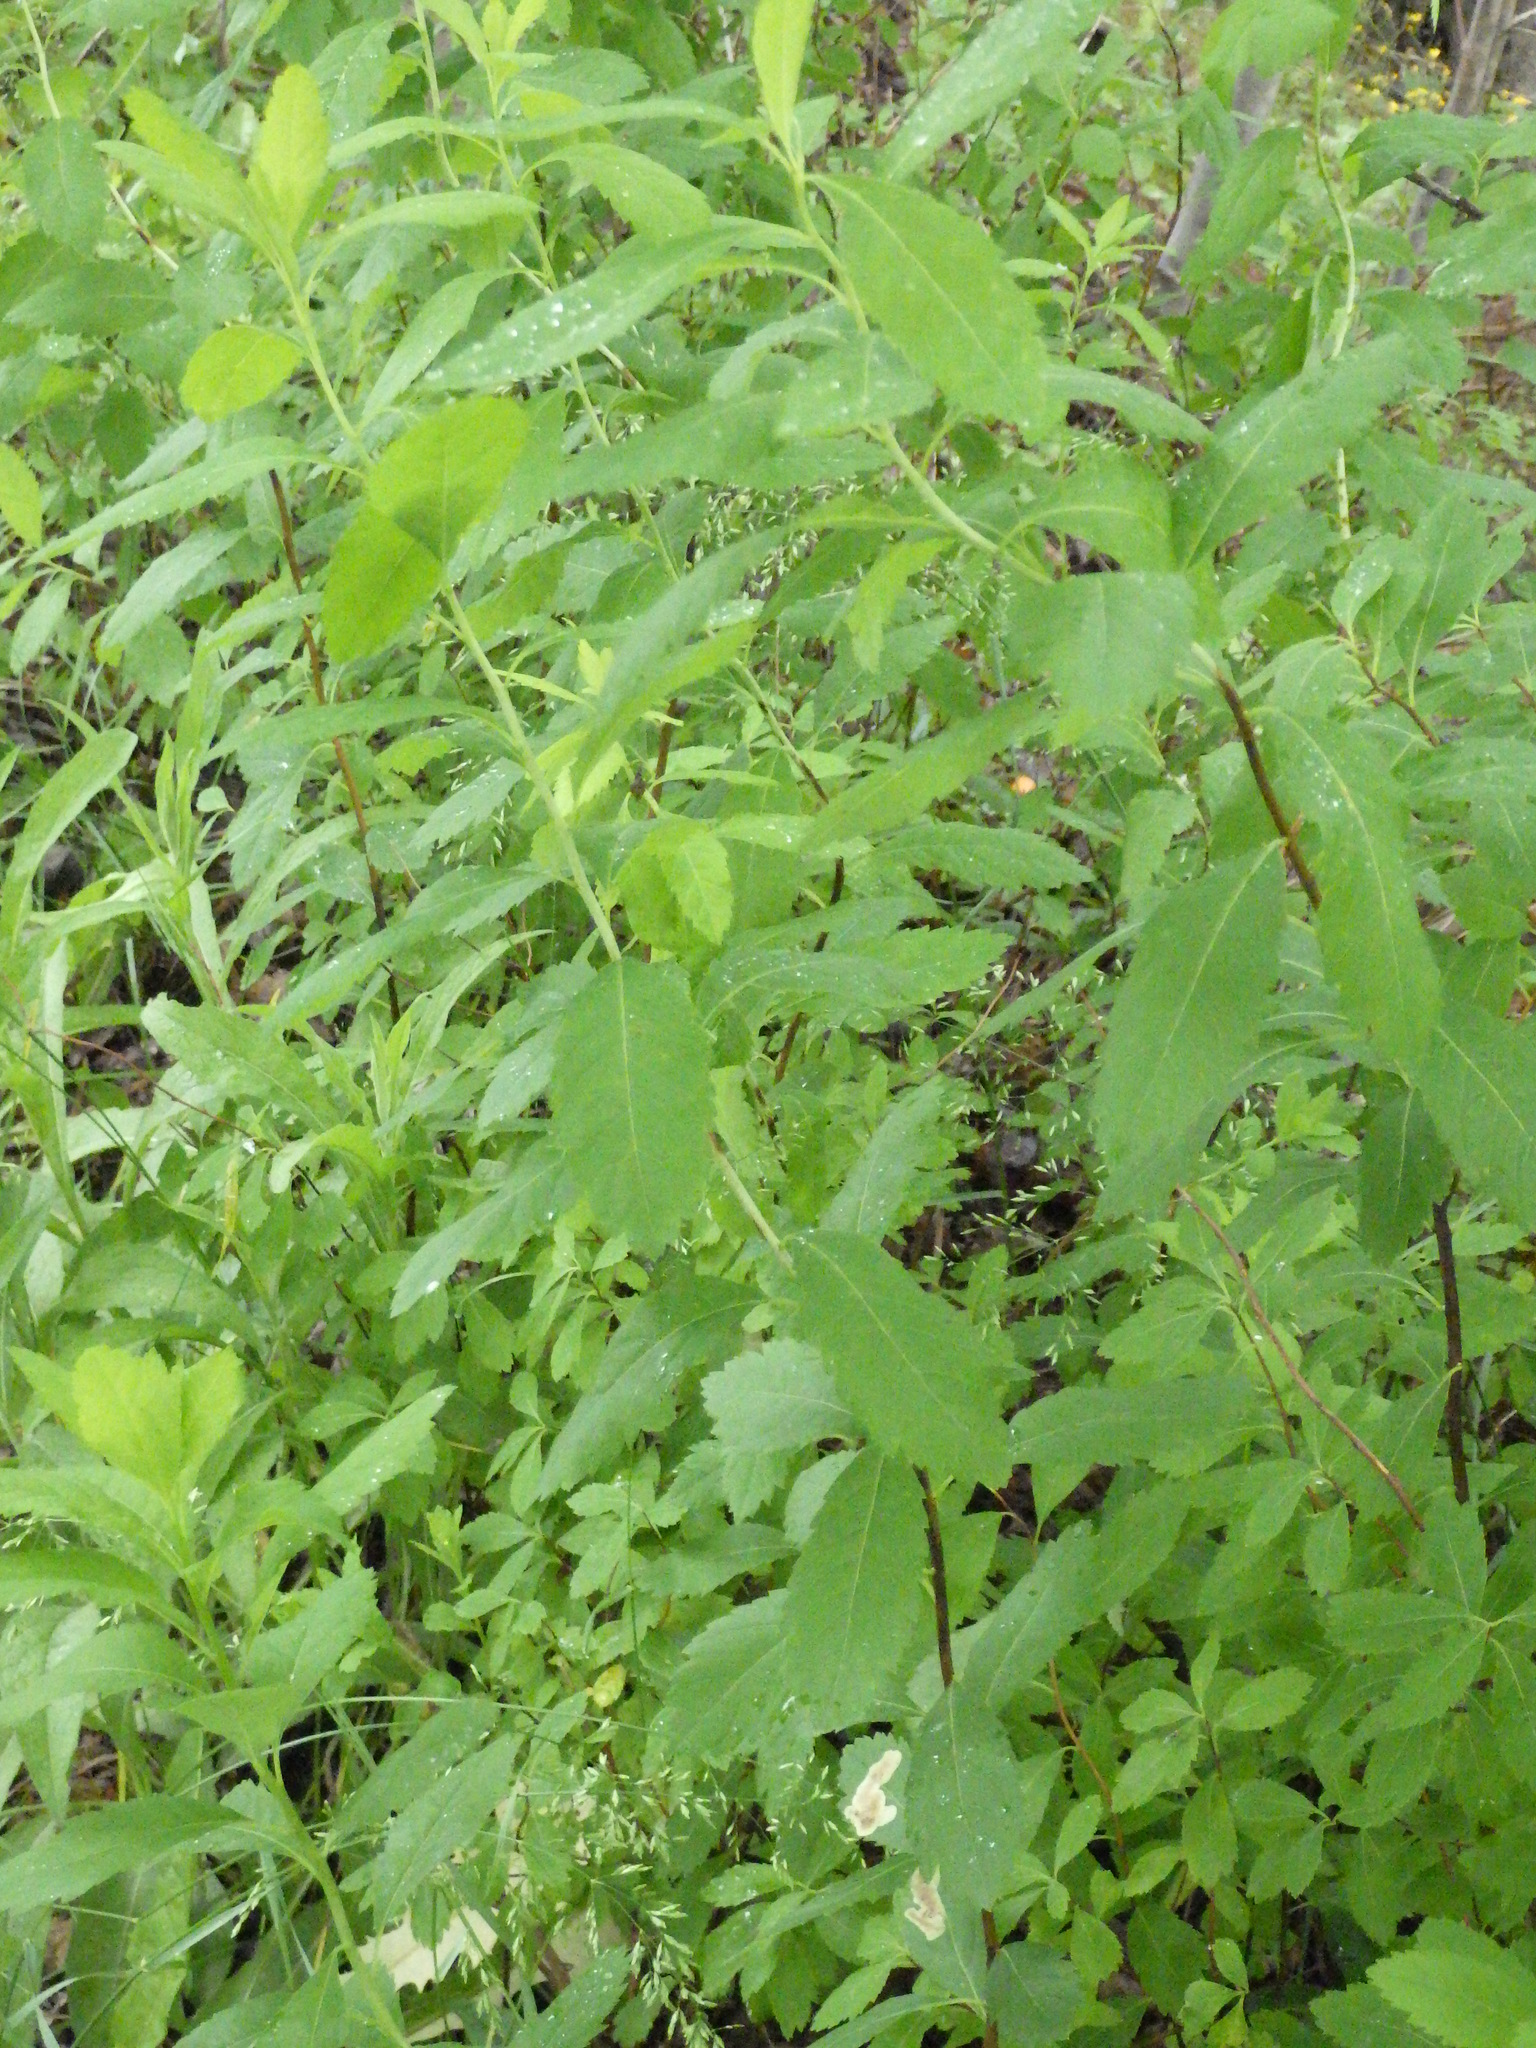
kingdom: Plantae
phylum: Tracheophyta
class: Magnoliopsida
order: Rosales
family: Rosaceae
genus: Spiraea
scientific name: Spiraea alba
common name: Pale bridewort
